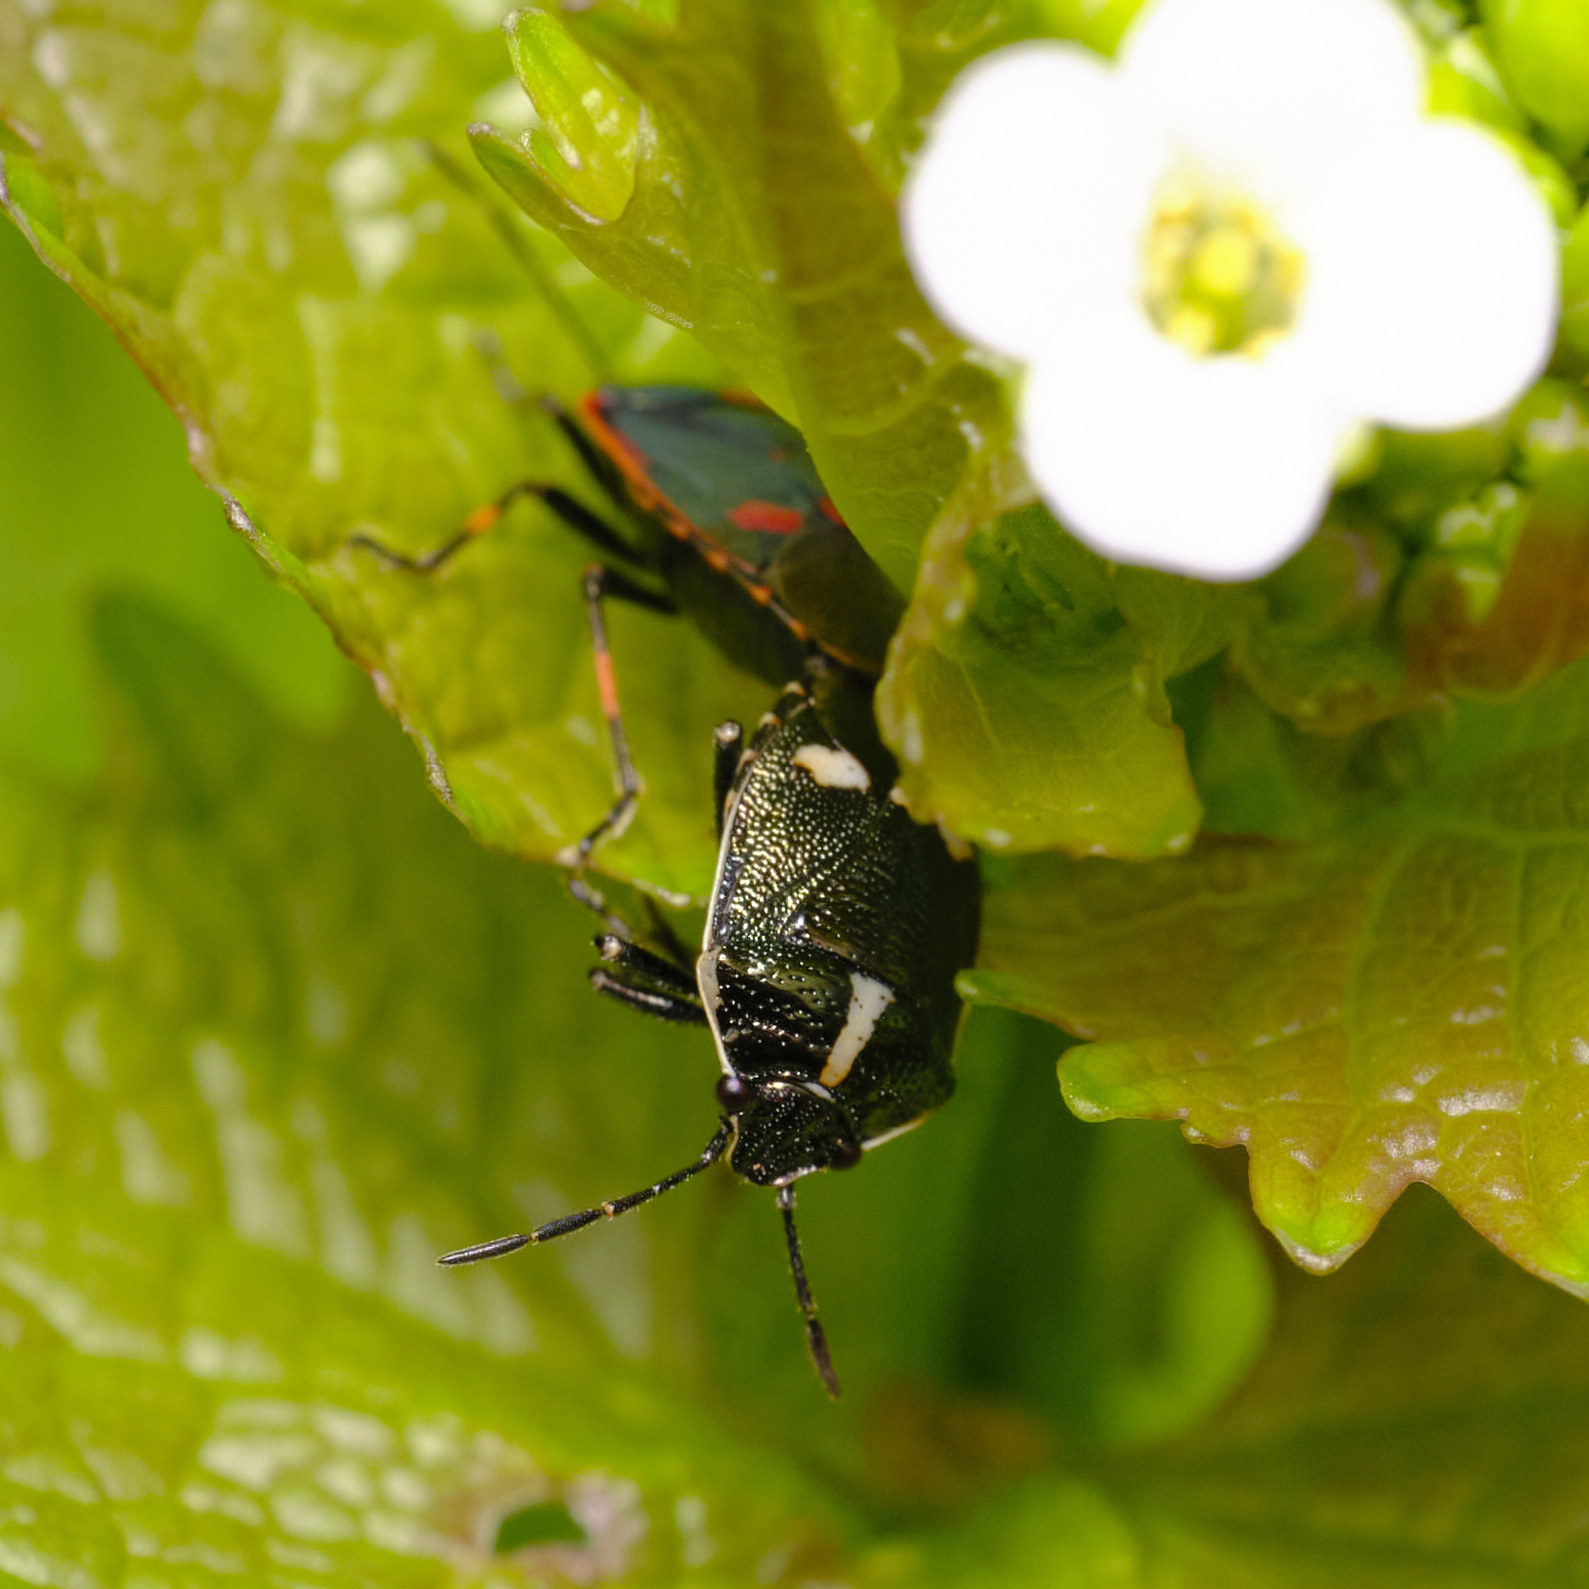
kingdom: Animalia
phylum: Arthropoda
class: Insecta
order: Hemiptera
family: Pentatomidae
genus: Eurydema
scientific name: Eurydema oleracea
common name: Cabbage bug
